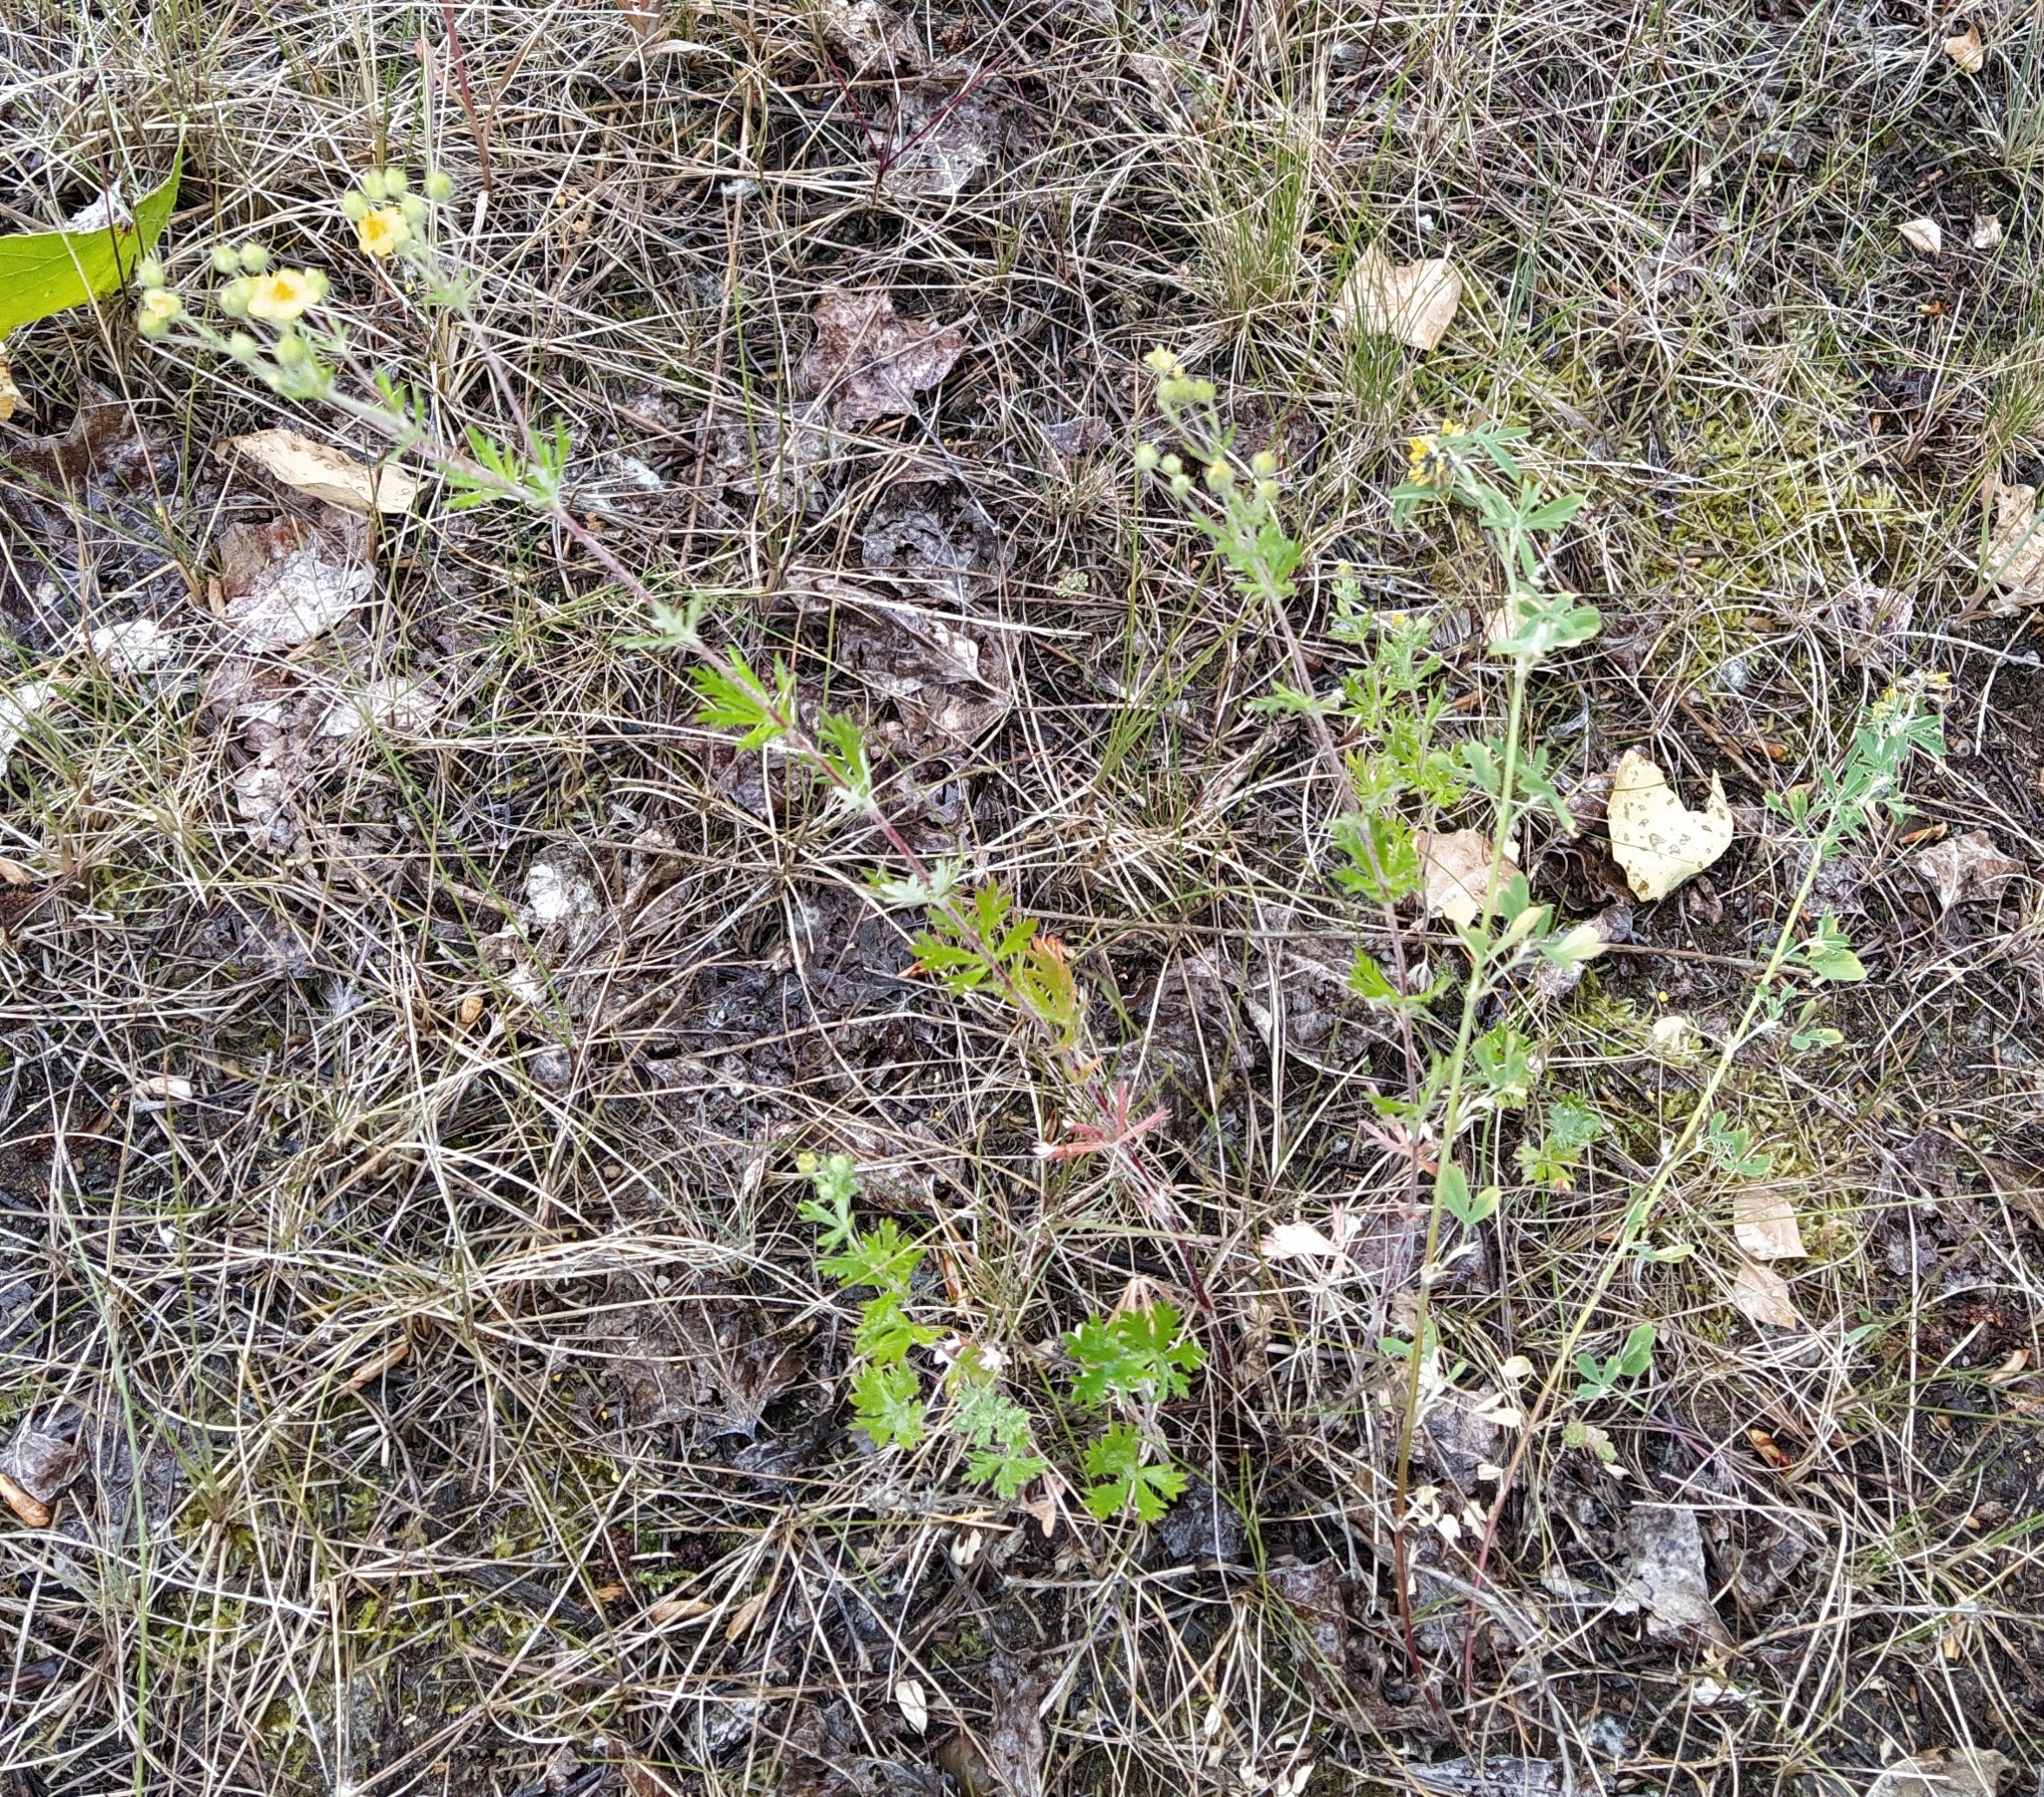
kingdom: Plantae
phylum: Tracheophyta
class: Magnoliopsida
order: Rosales
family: Rosaceae
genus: Potentilla
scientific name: Potentilla argentea
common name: Hoary cinquefoil
